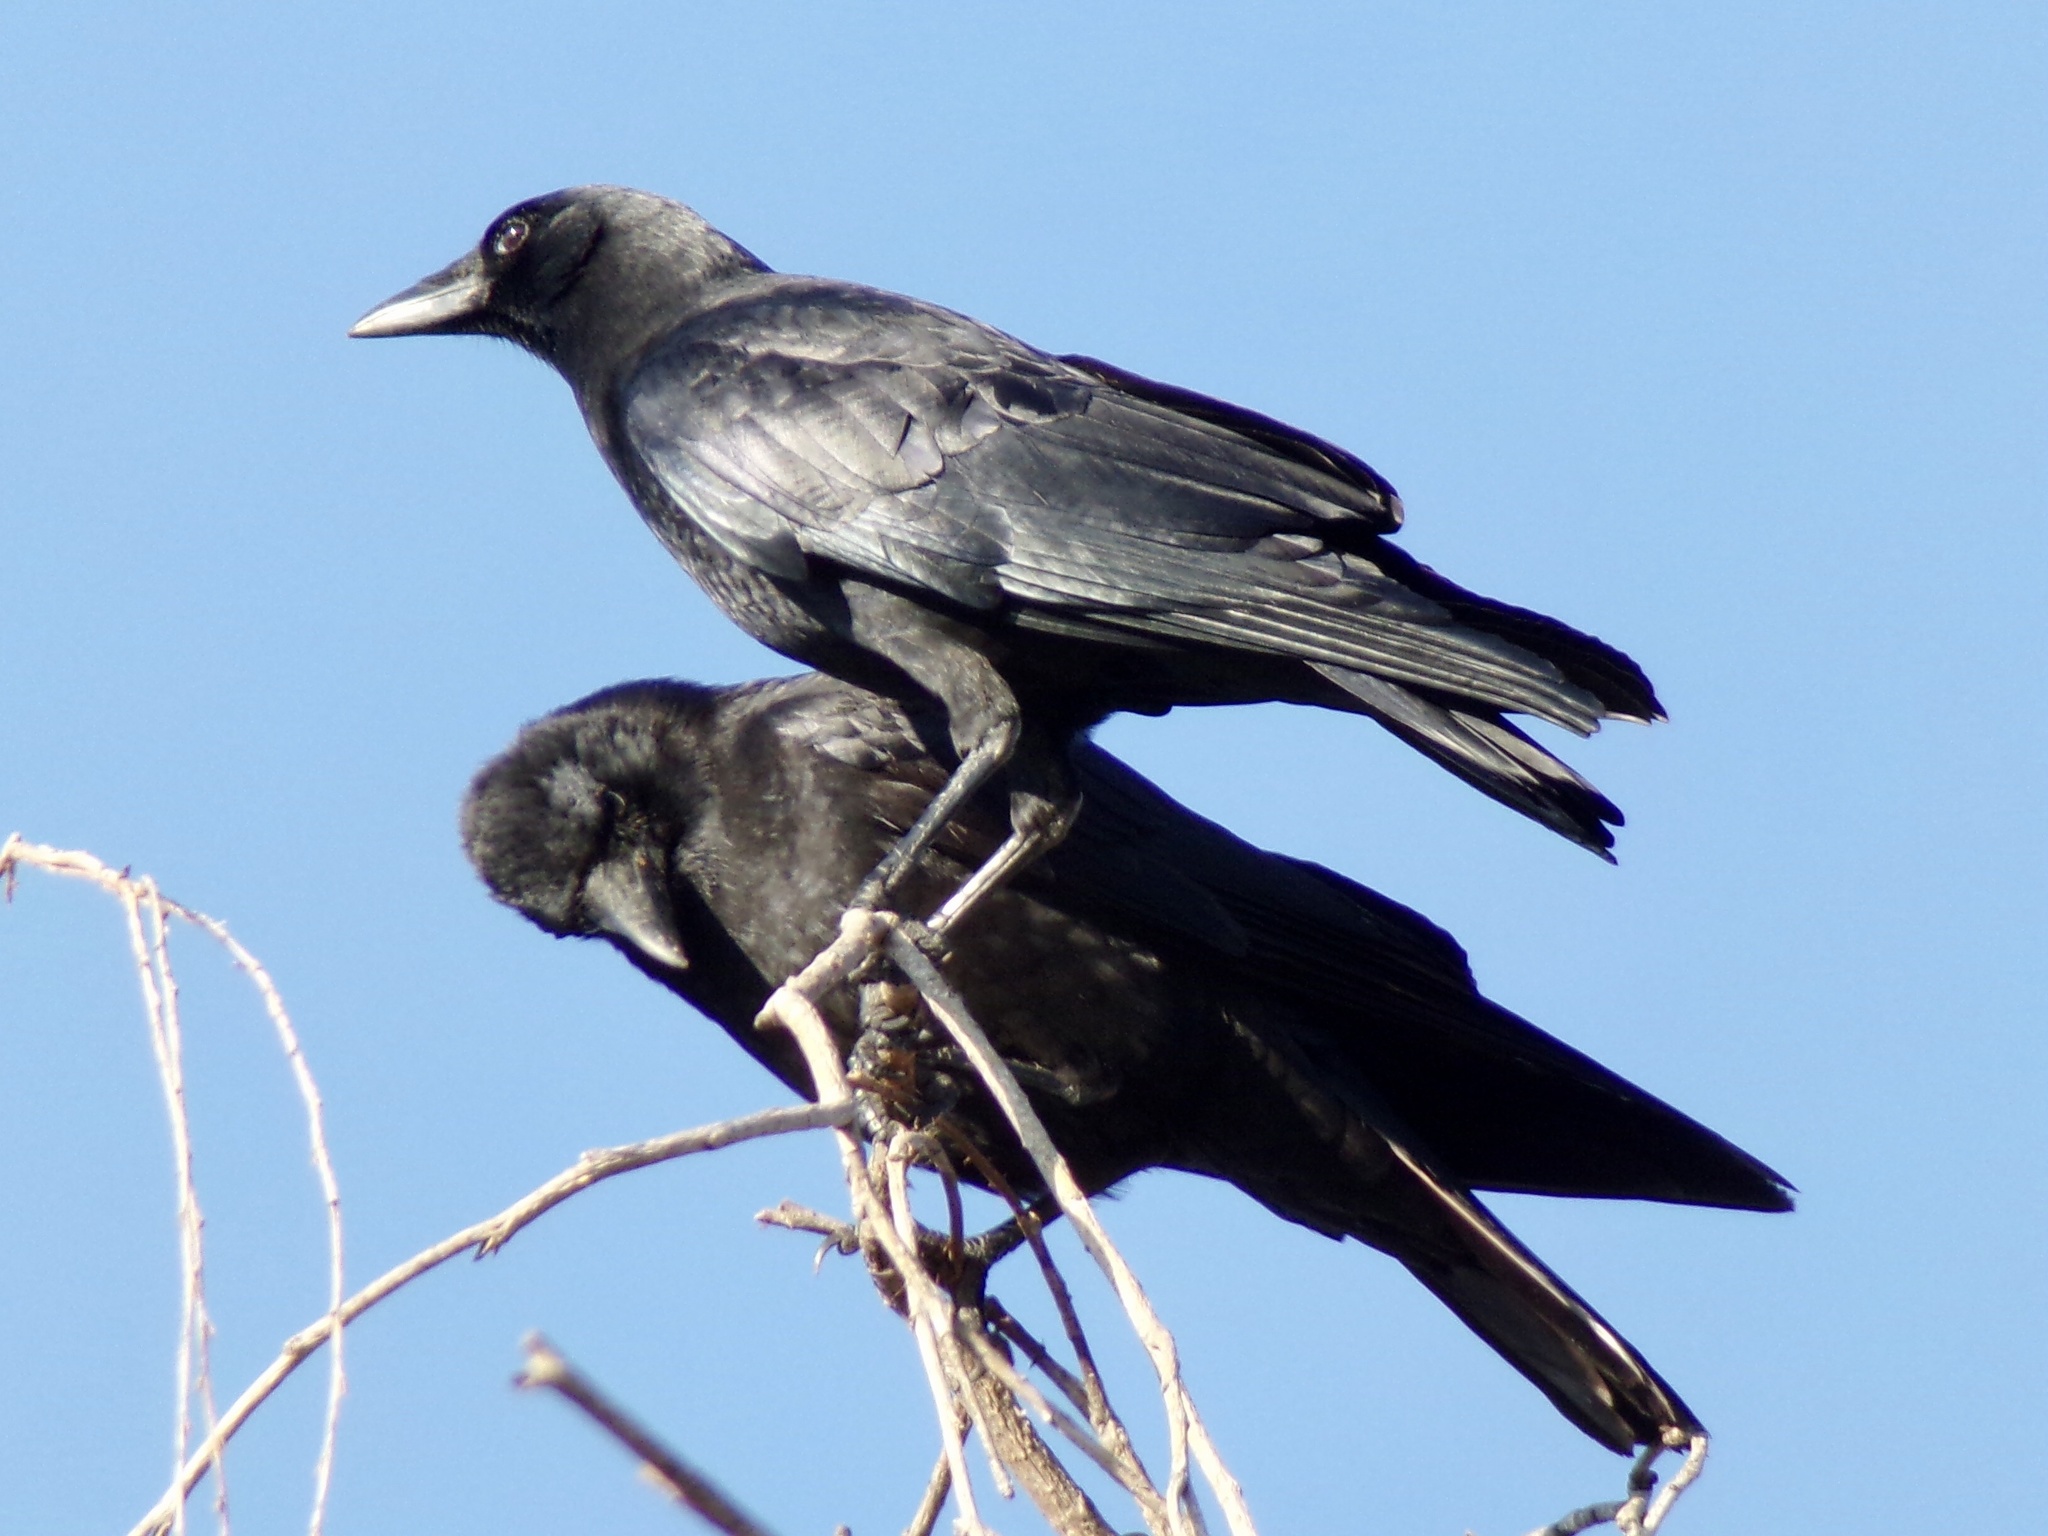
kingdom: Animalia
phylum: Chordata
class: Aves
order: Passeriformes
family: Corvidae
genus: Corvus
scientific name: Corvus brachyrhynchos
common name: American crow
